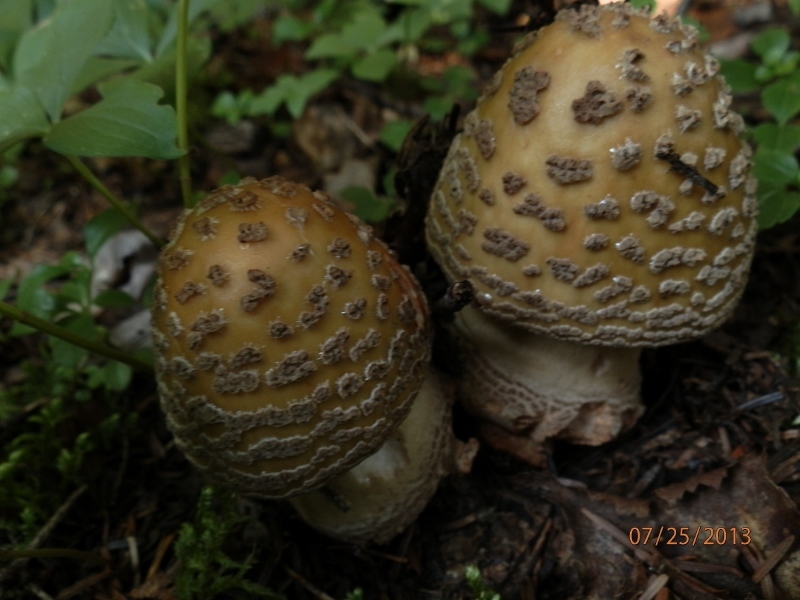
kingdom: Fungi
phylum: Basidiomycota
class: Agaricomycetes
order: Agaricales
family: Amanitaceae
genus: Amanita
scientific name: Amanita rubescens
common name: Blusher
